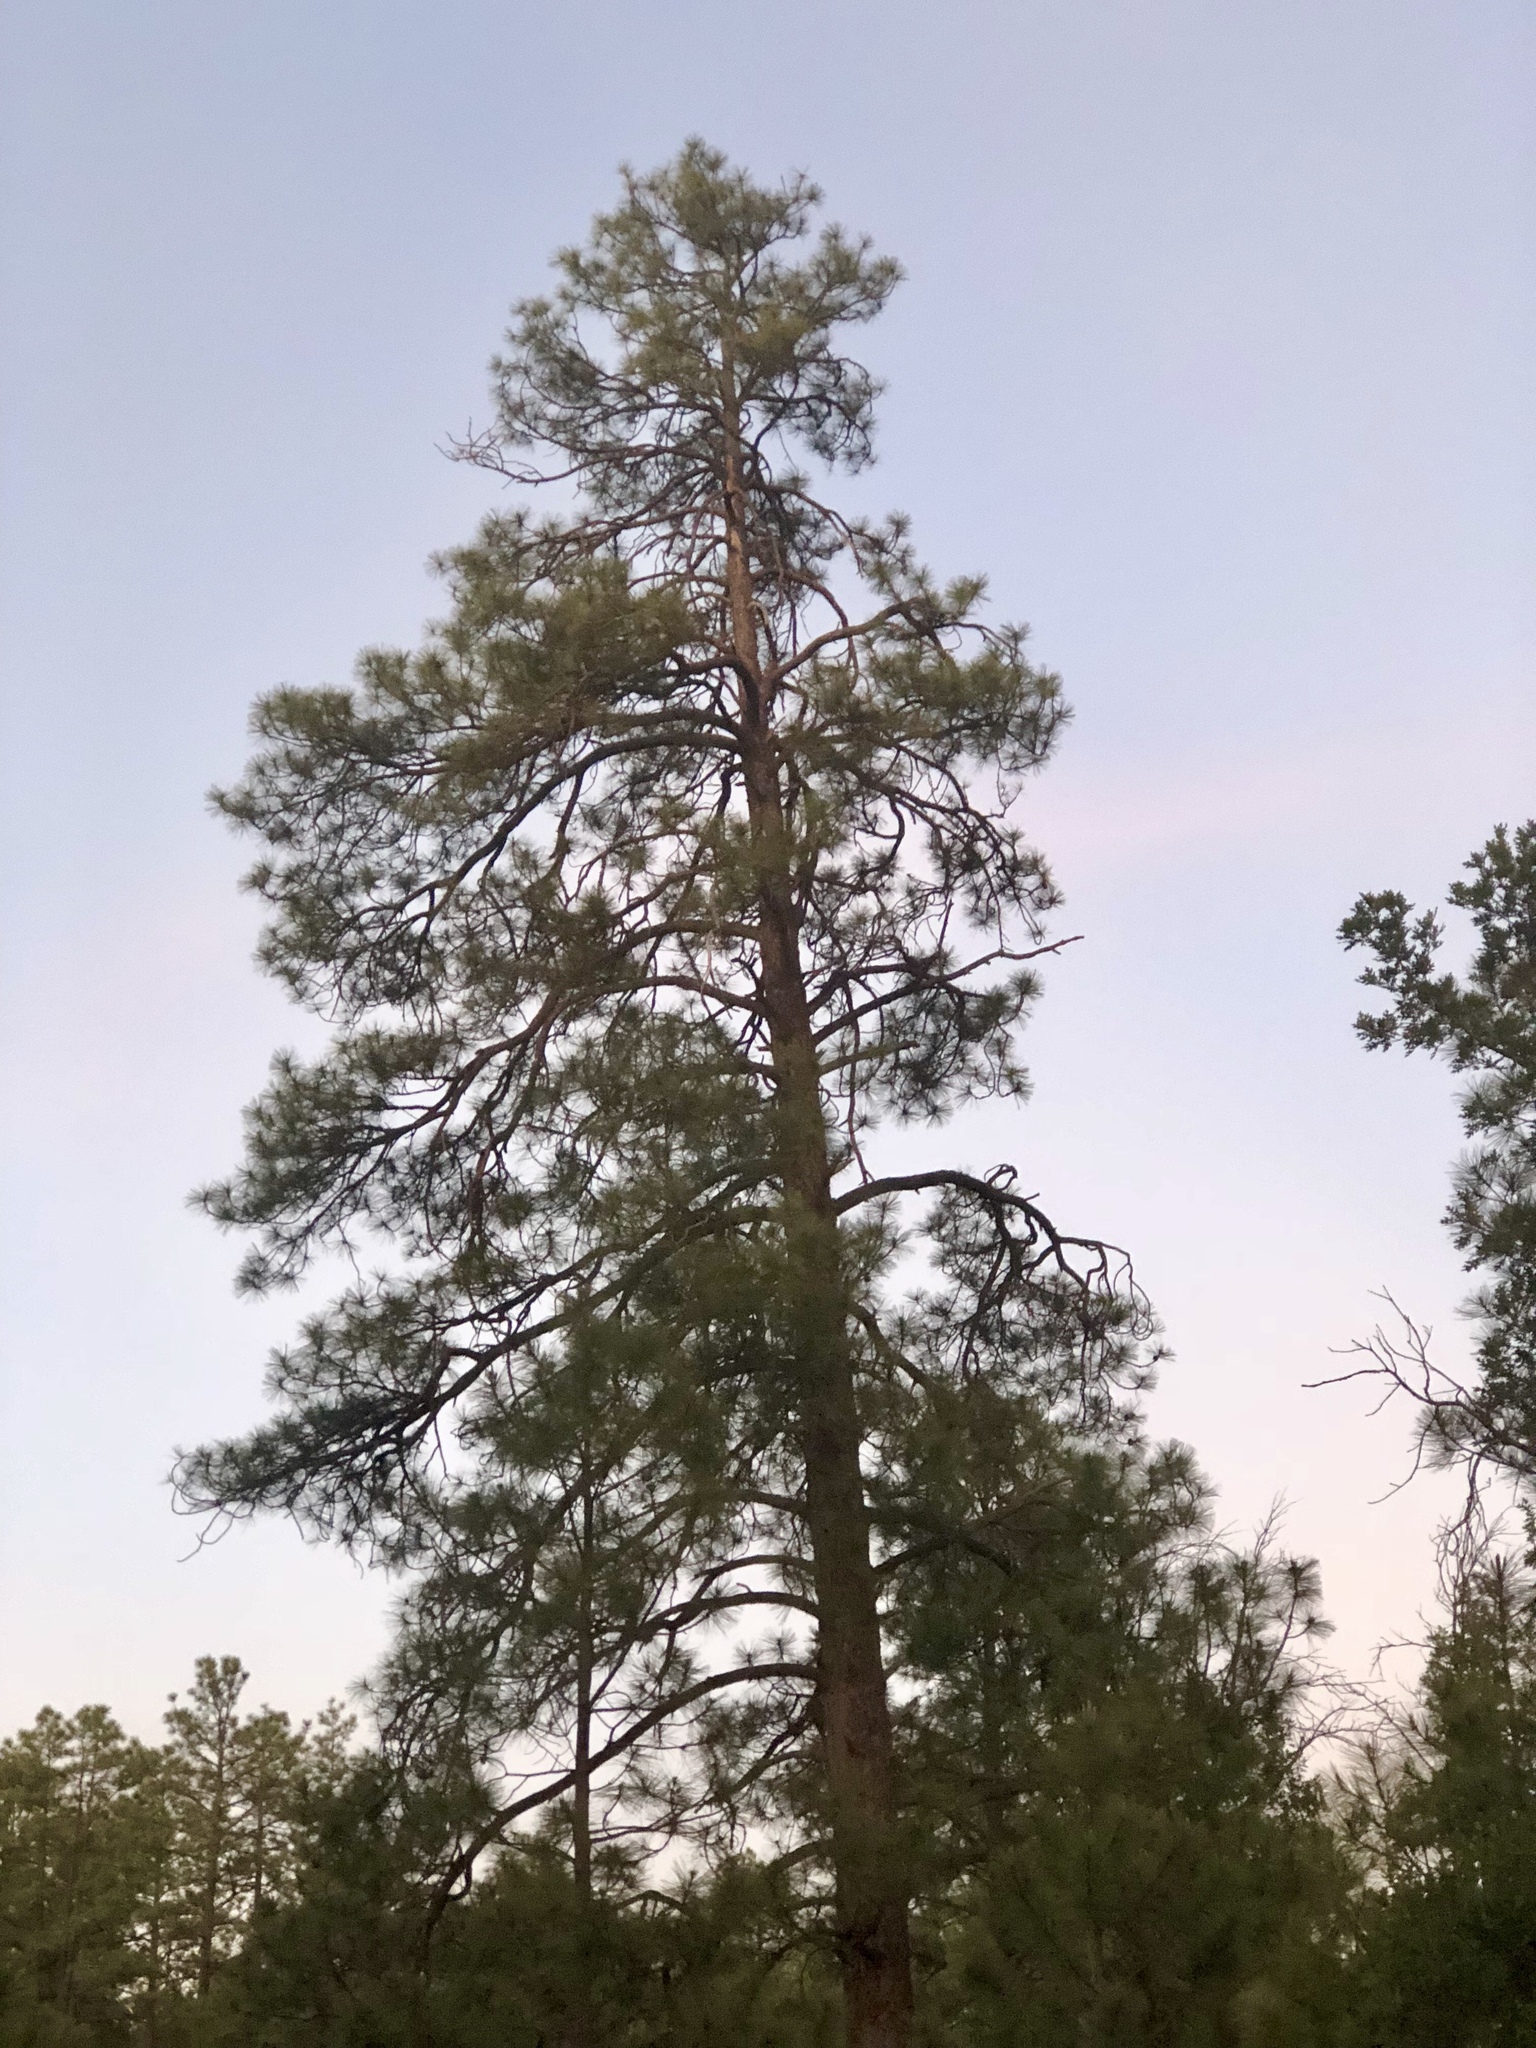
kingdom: Plantae
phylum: Tracheophyta
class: Pinopsida
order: Pinales
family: Pinaceae
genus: Pinus
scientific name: Pinus ponderosa
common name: Western yellow-pine
